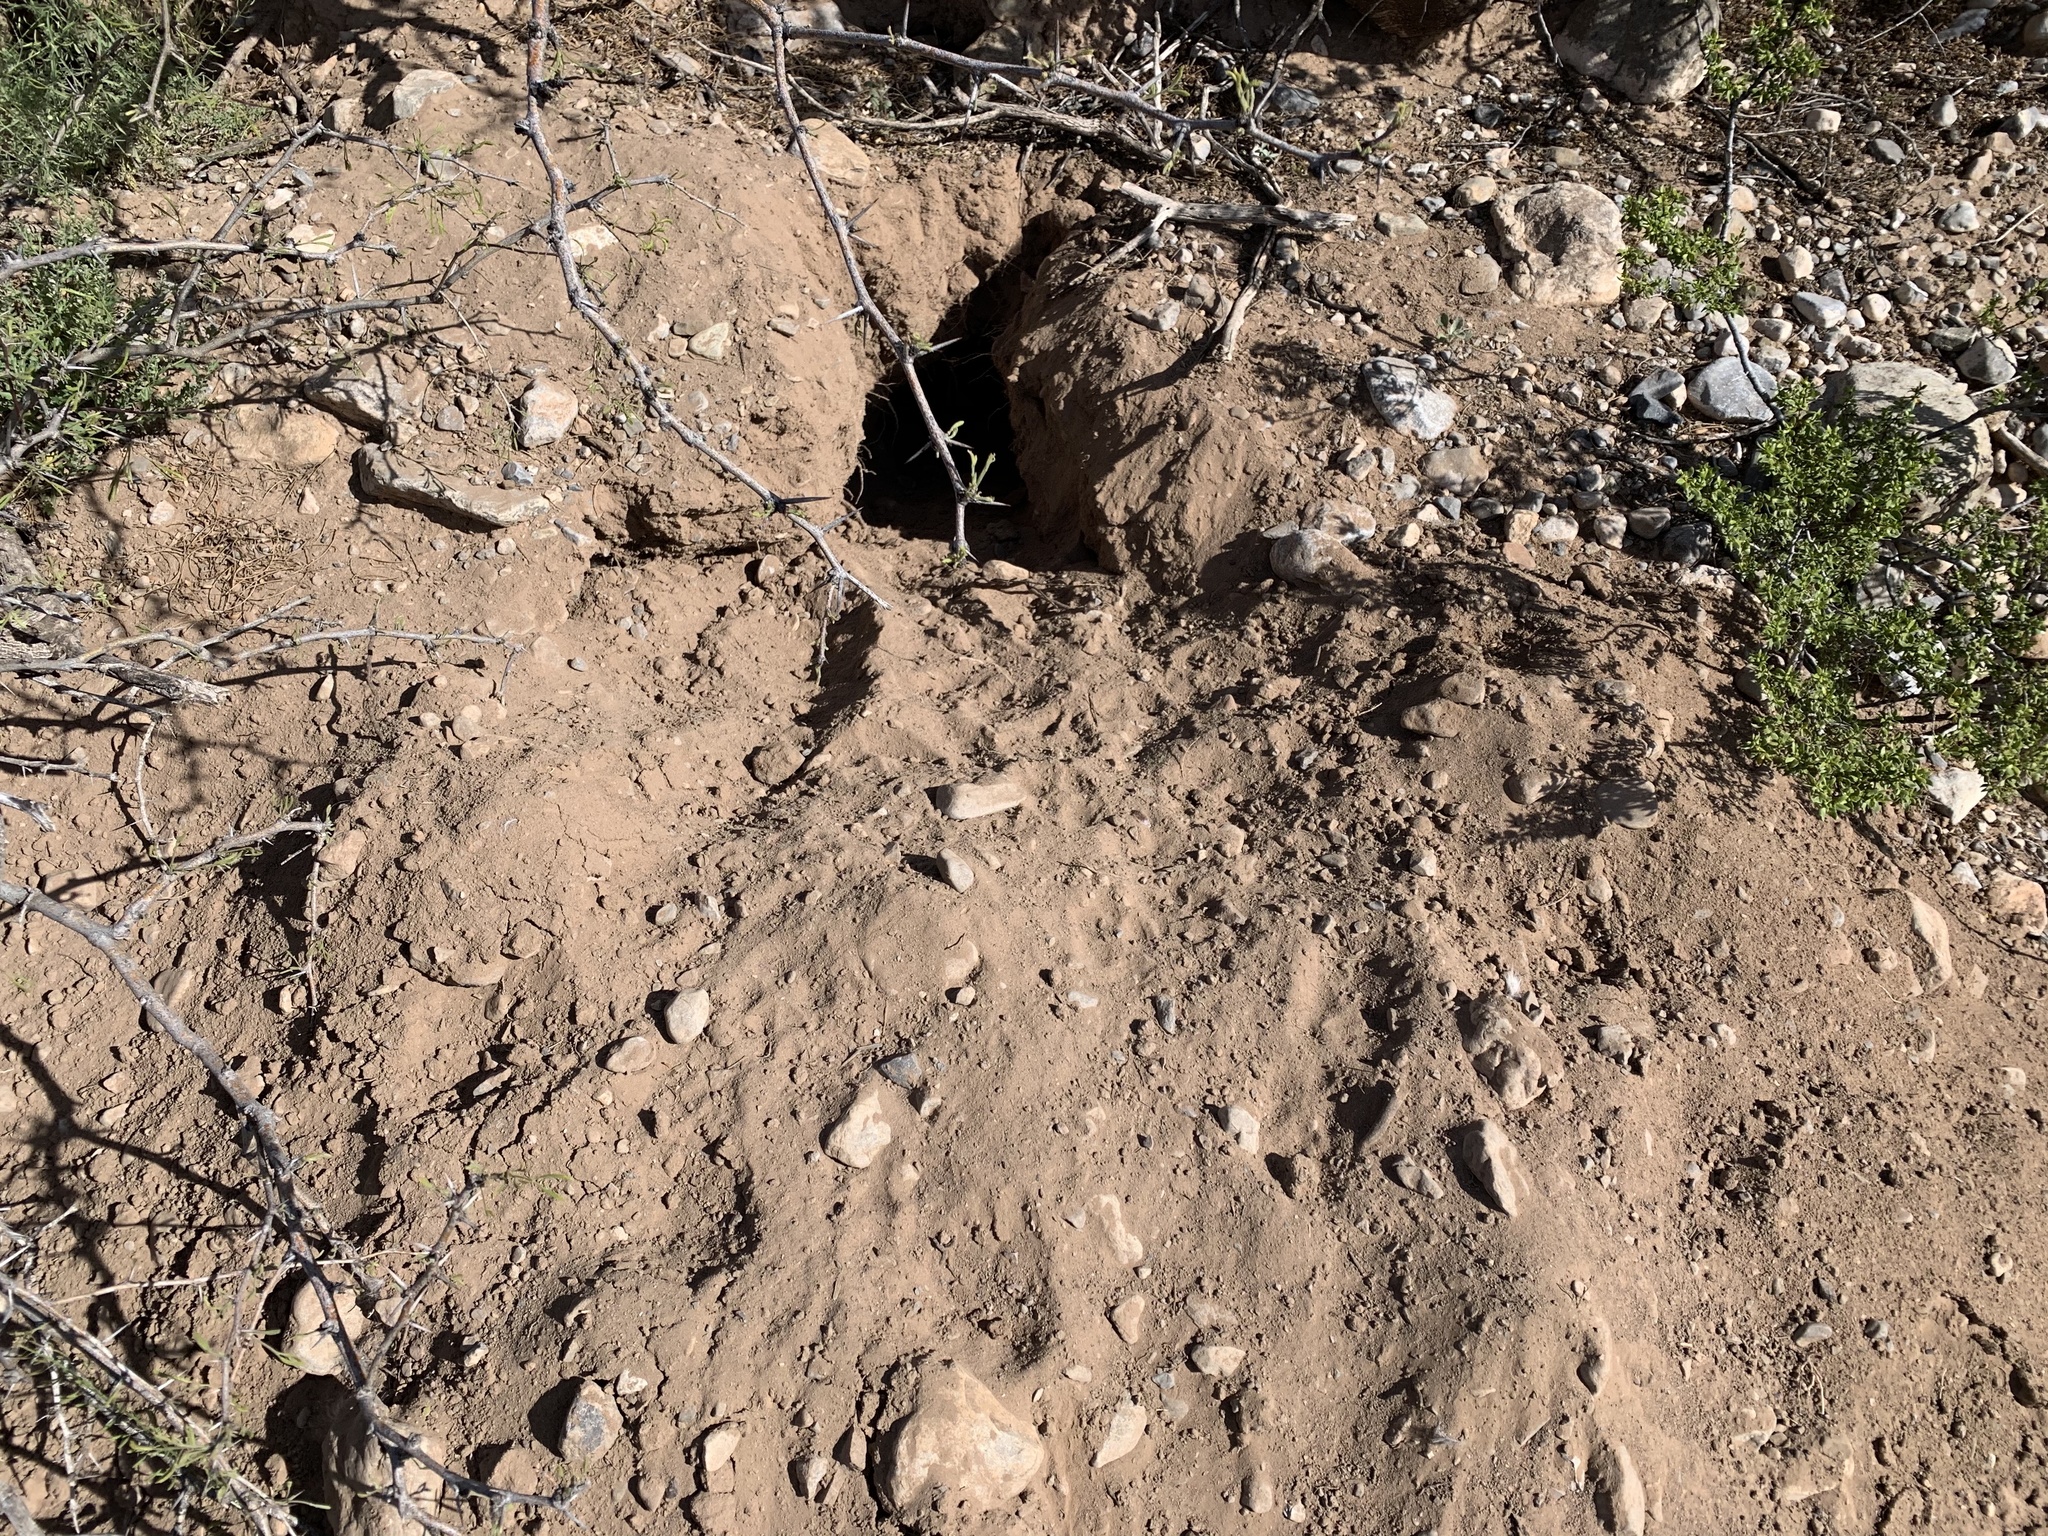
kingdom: Animalia
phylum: Chordata
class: Mammalia
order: Carnivora
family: Mustelidae
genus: Taxidea
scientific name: Taxidea taxus
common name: American badger
